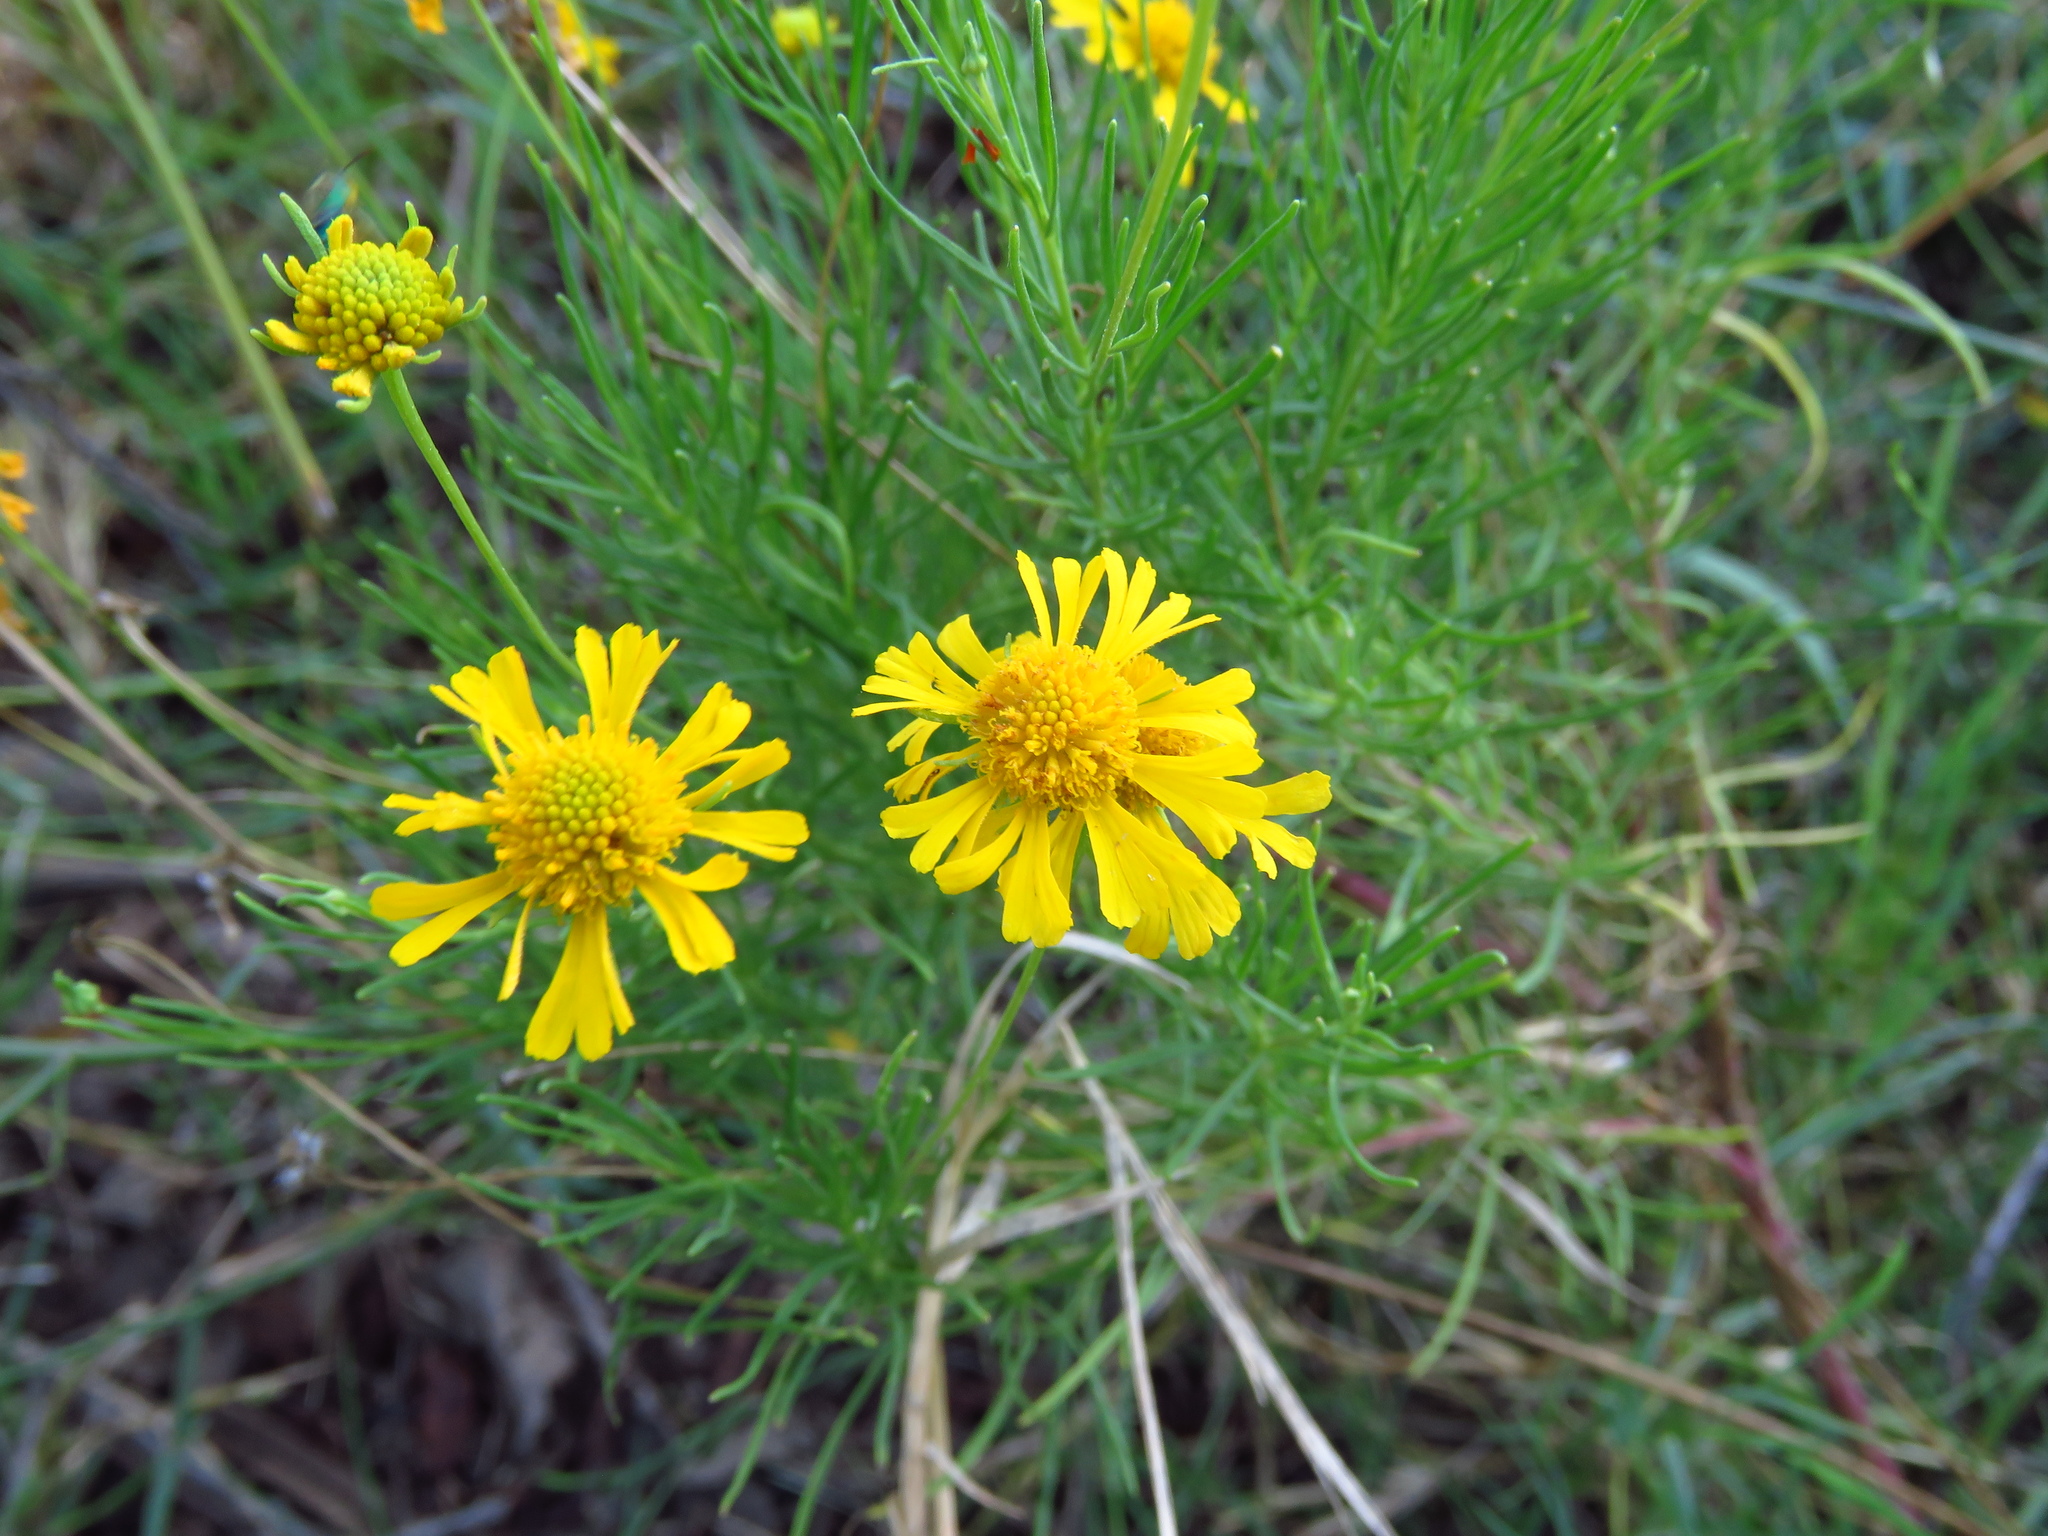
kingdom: Plantae
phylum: Tracheophyta
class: Magnoliopsida
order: Asterales
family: Asteraceae
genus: Helenium
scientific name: Helenium amarum
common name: Bitter sneezeweed
